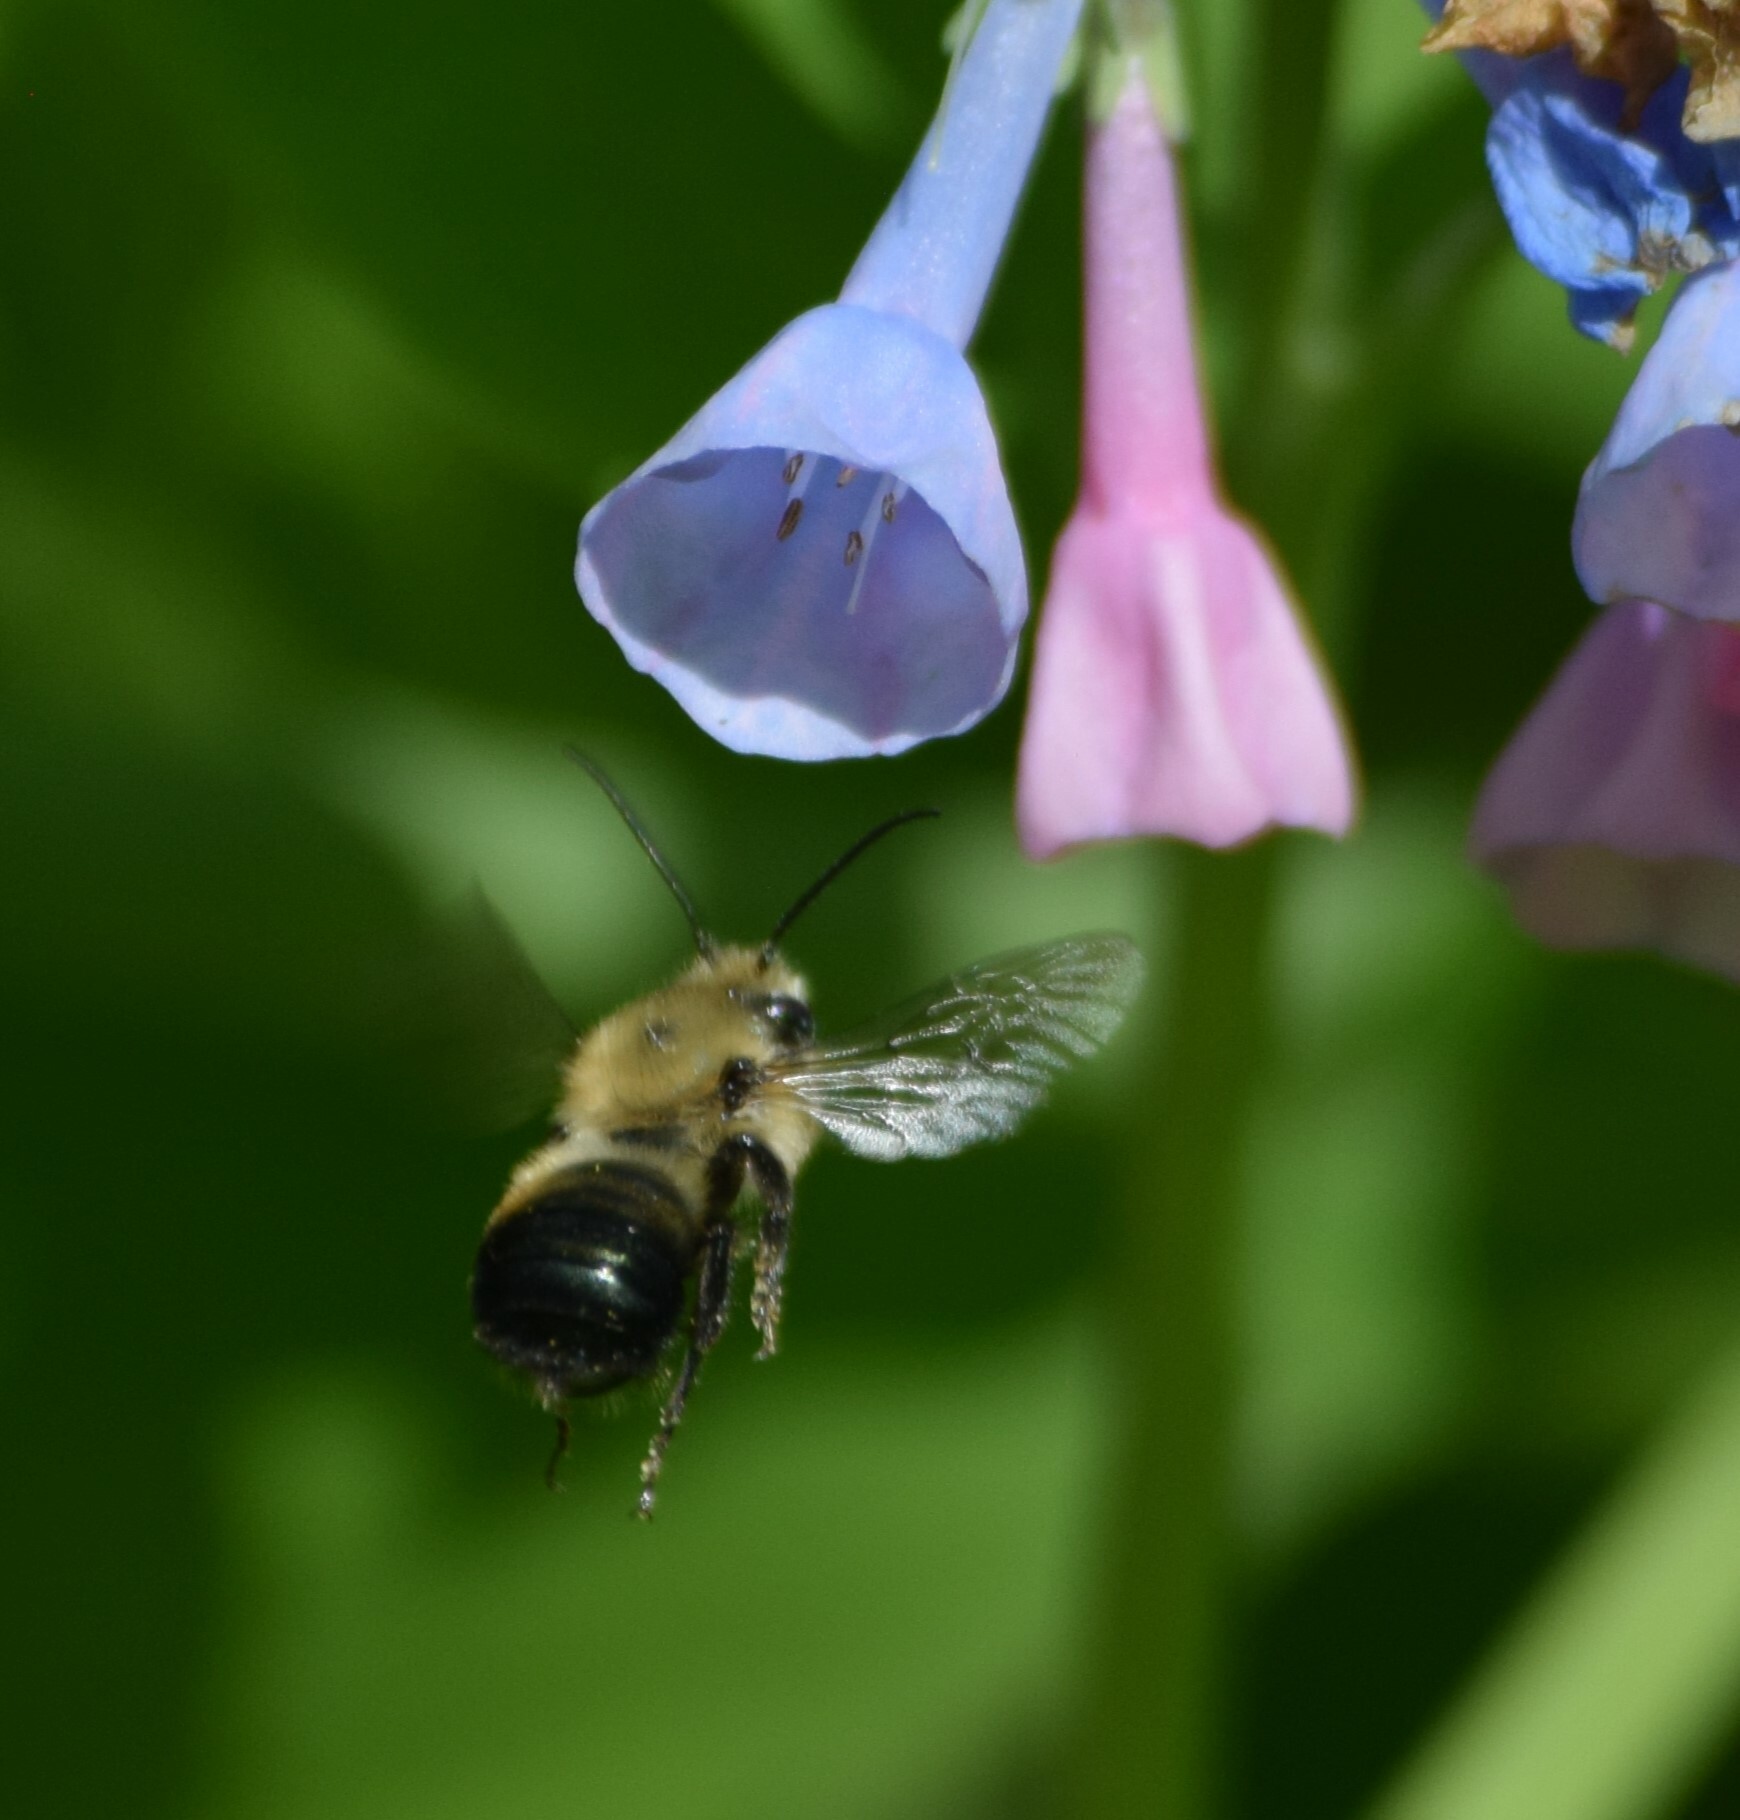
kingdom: Animalia
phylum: Arthropoda
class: Insecta
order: Hymenoptera
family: Megachilidae
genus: Osmia
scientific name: Osmia bucephala
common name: Bufflehead mason bee
